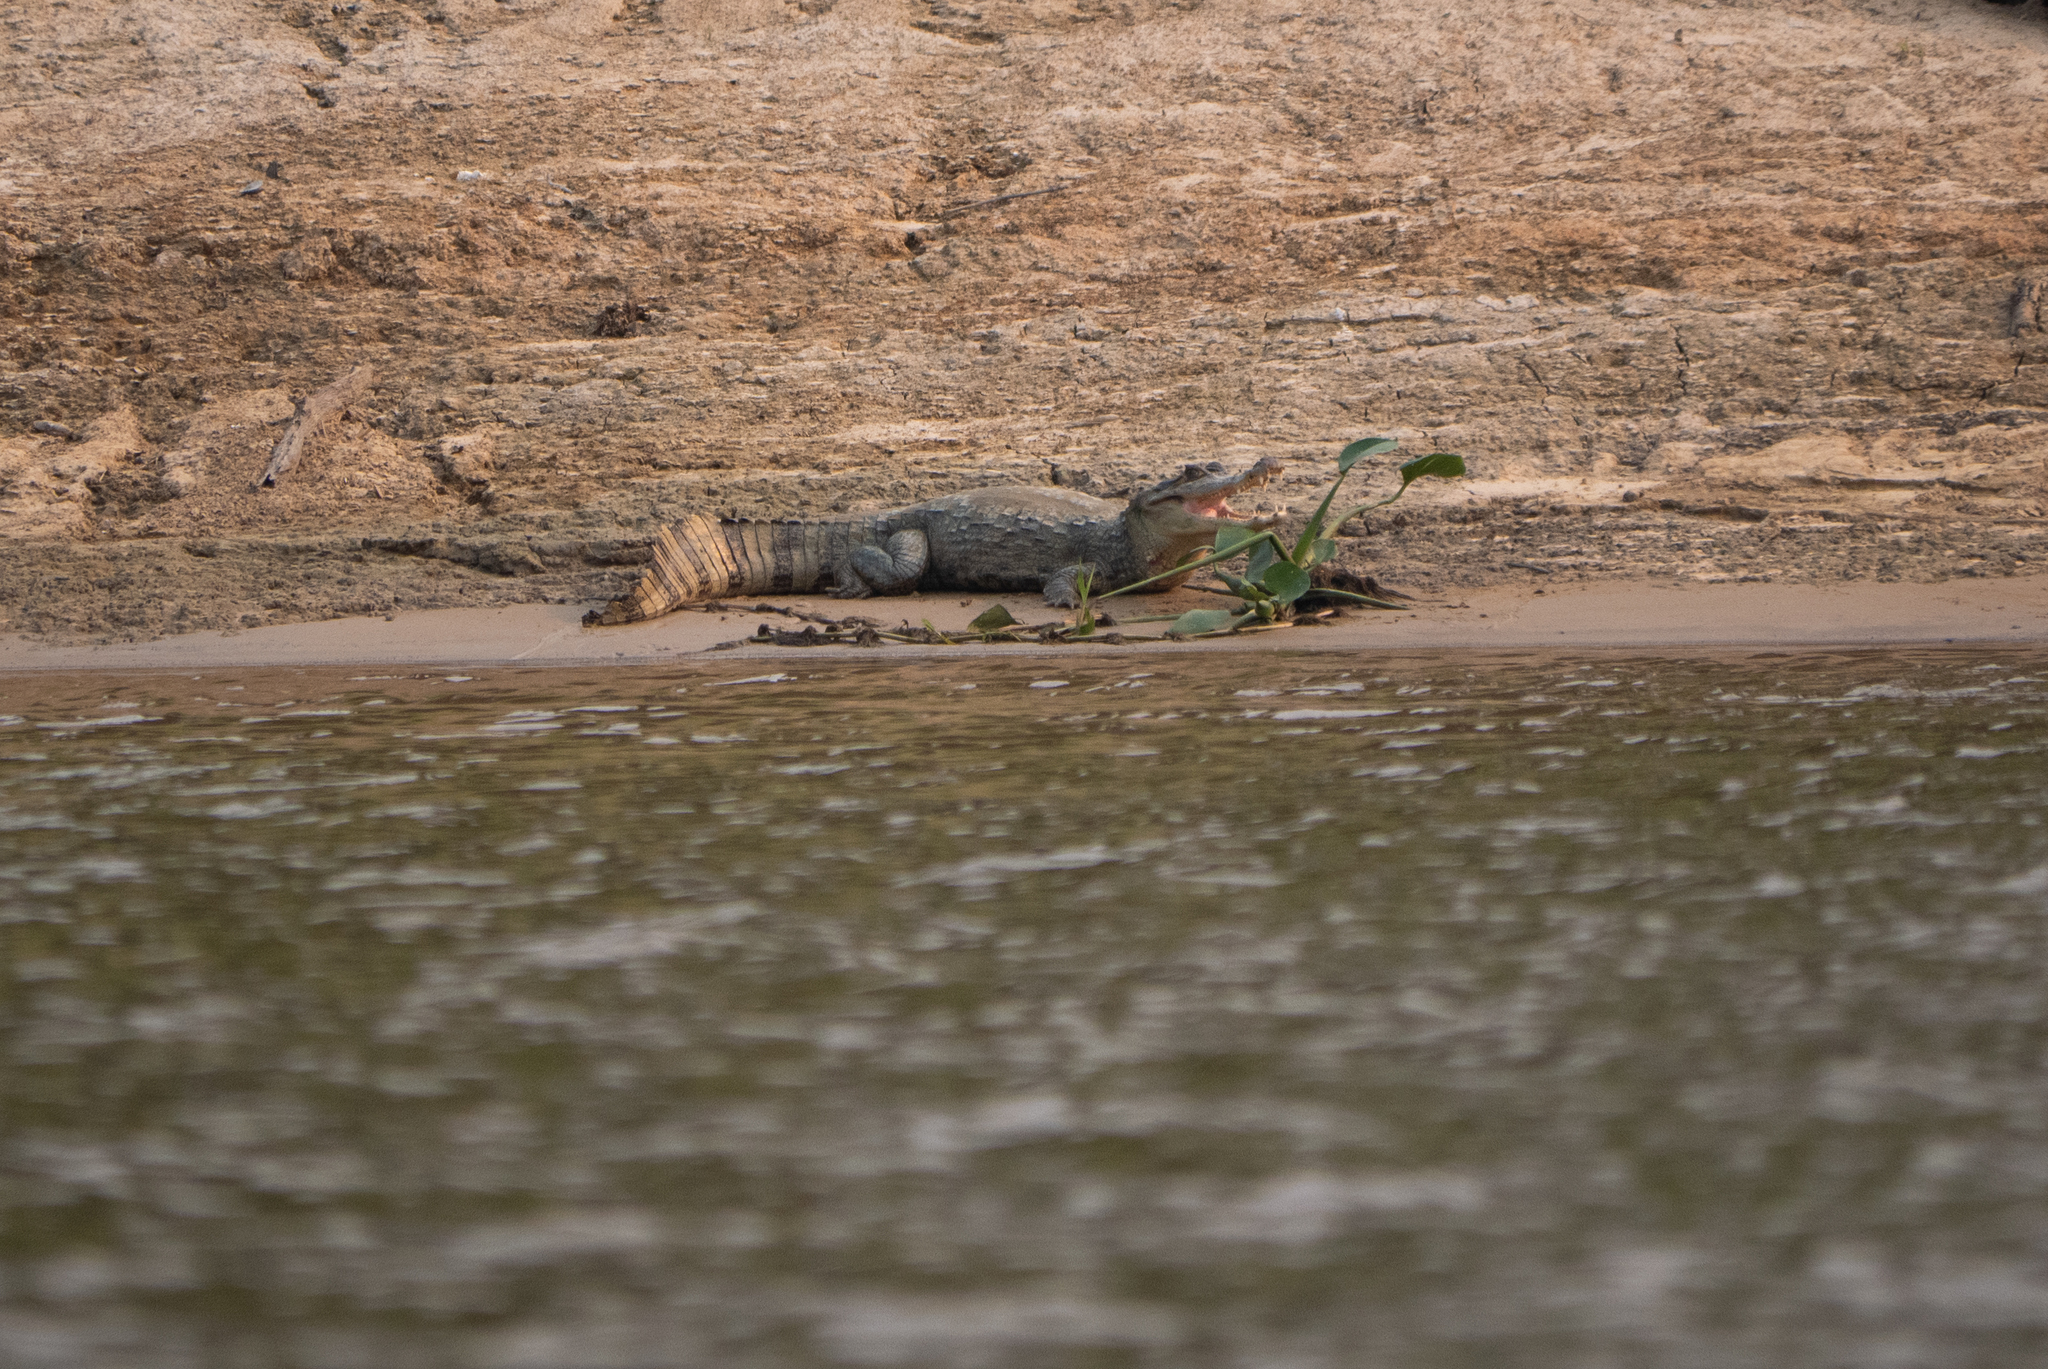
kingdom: Animalia
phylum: Chordata
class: Crocodylia
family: Alligatoridae
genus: Caiman
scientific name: Caiman crocodilus
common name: Common caiman
